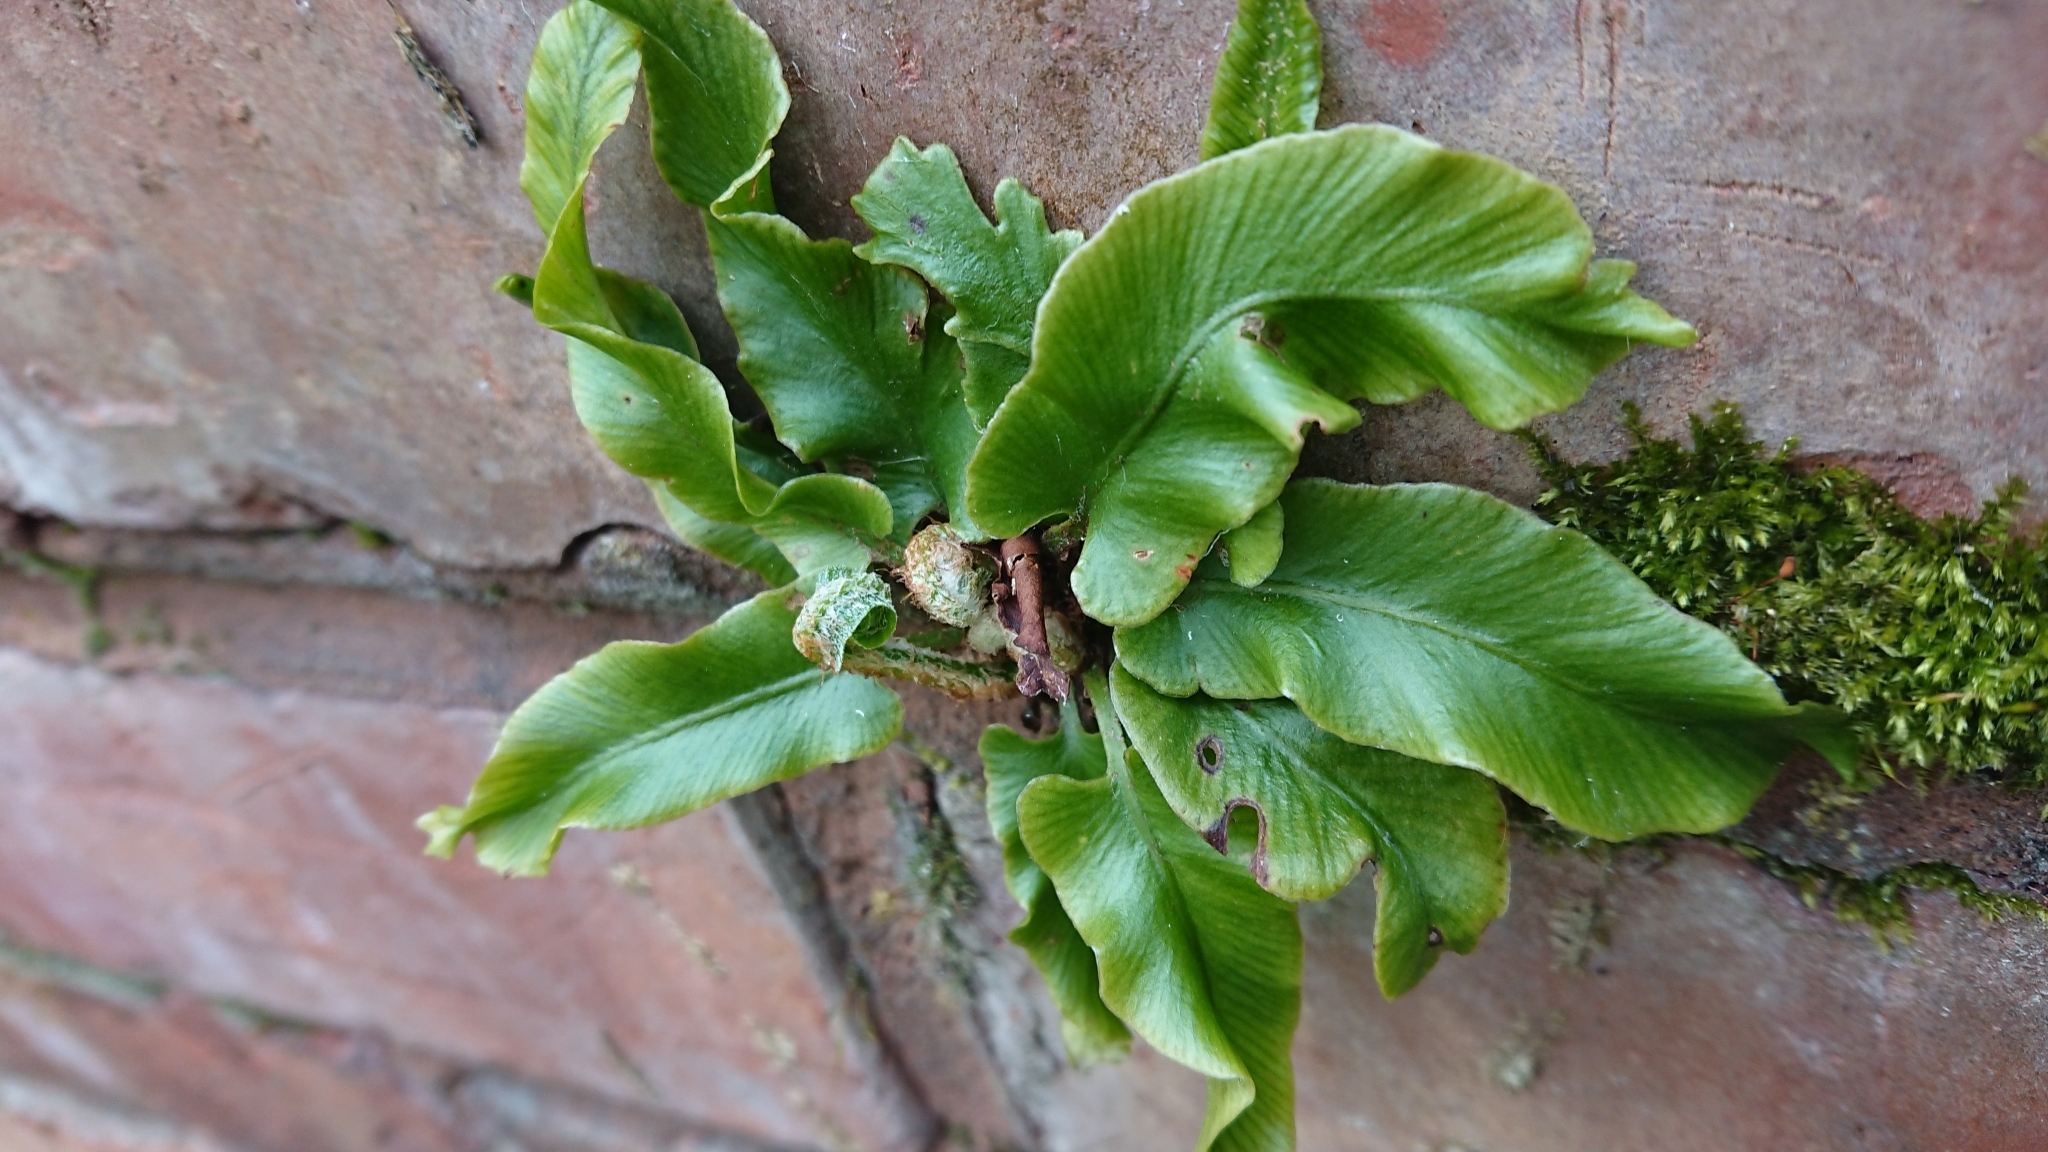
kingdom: Plantae
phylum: Tracheophyta
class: Polypodiopsida
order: Polypodiales
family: Aspleniaceae
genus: Asplenium
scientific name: Asplenium scolopendrium
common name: Hart's-tongue fern
